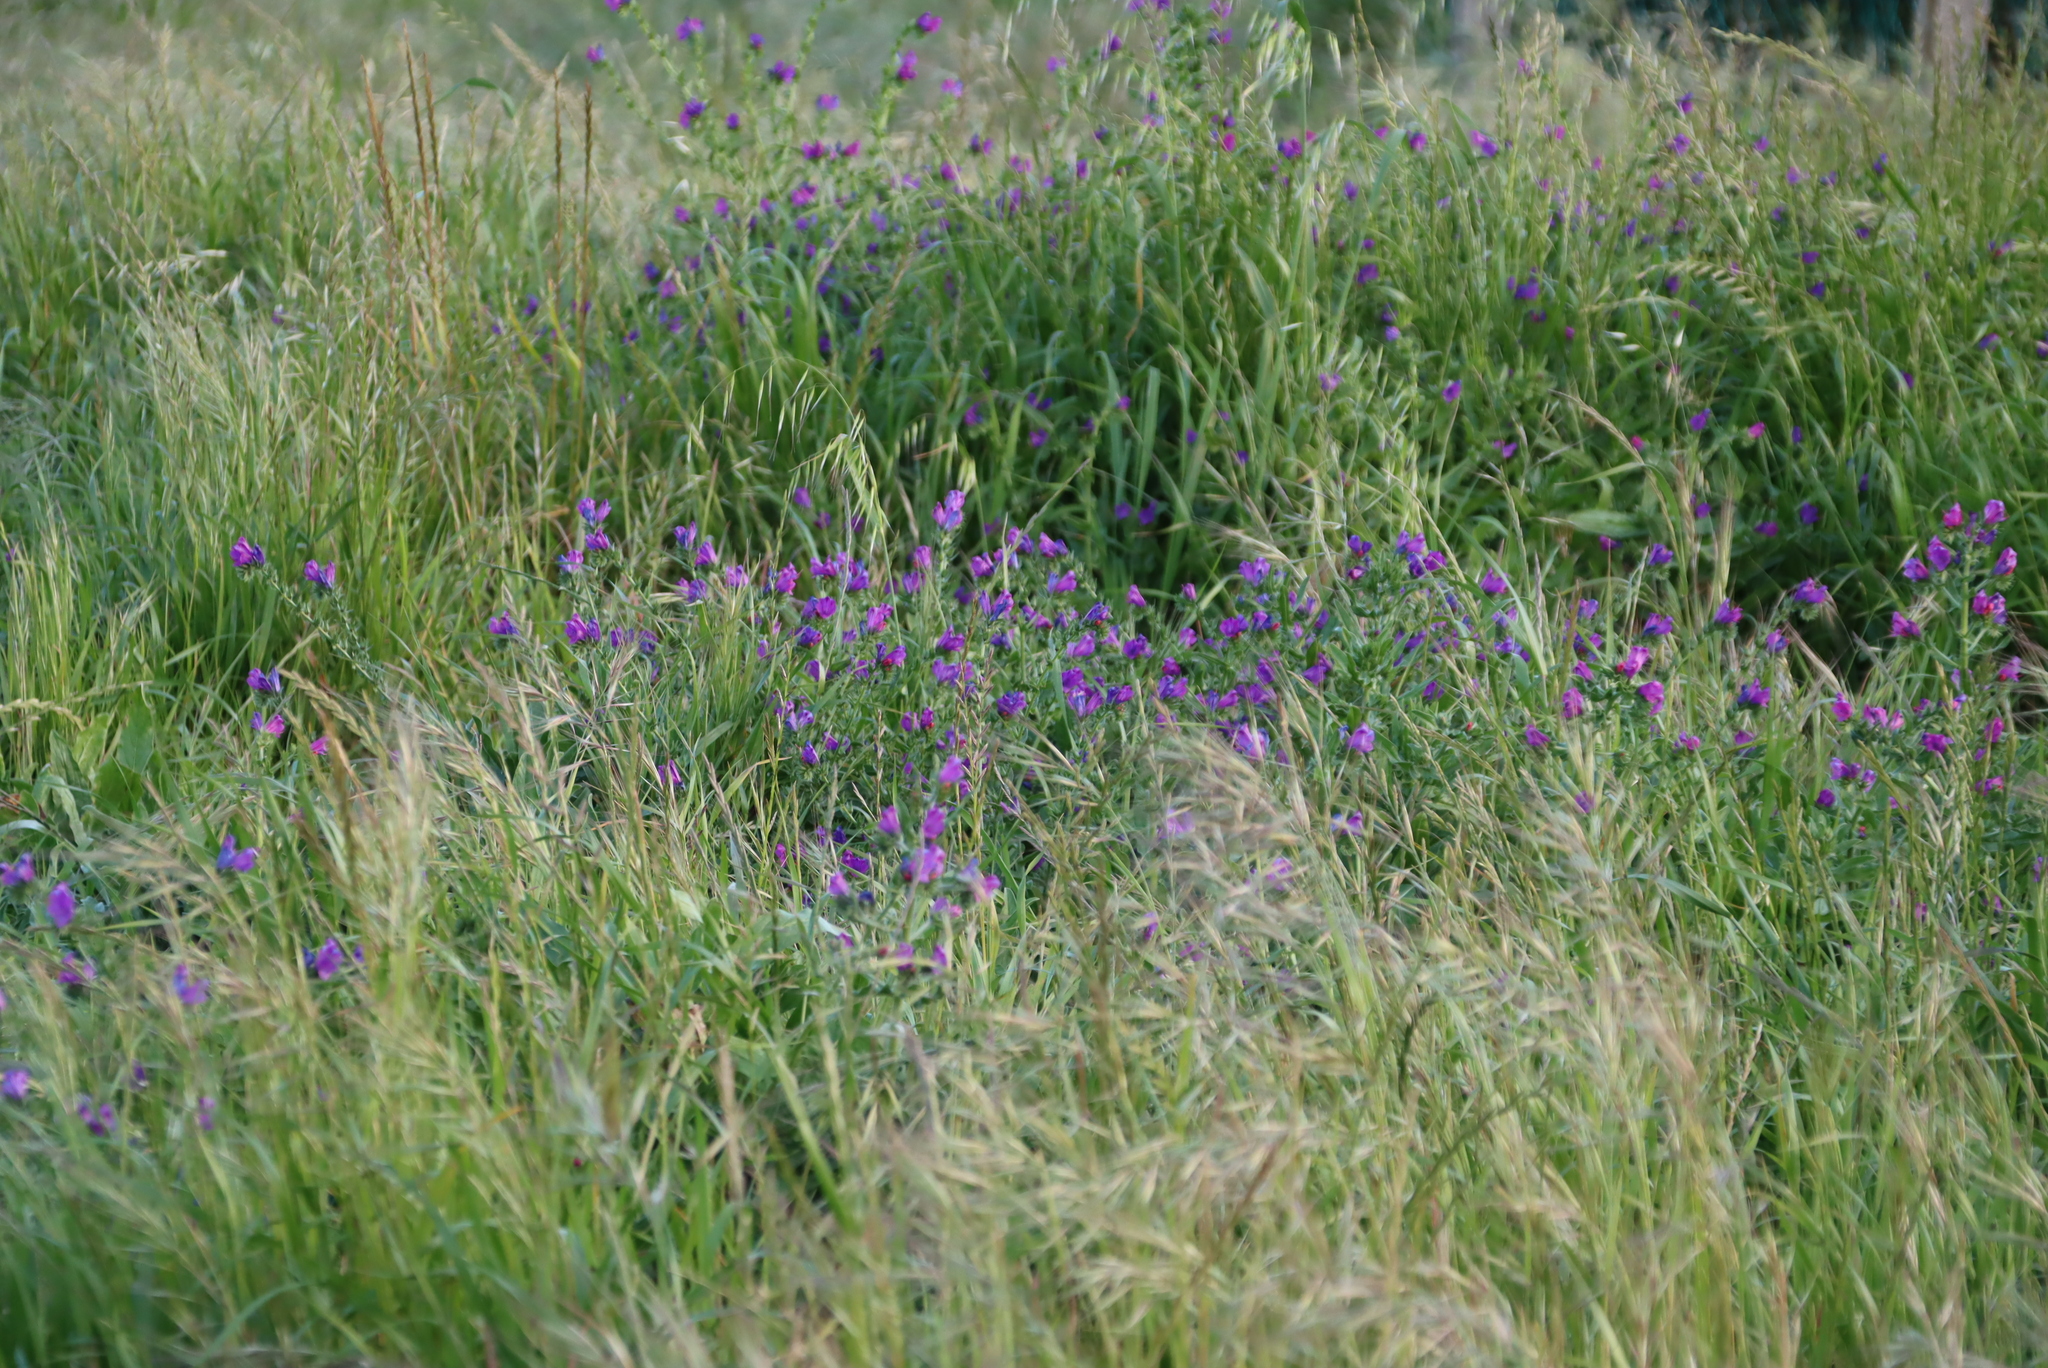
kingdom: Plantae
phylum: Tracheophyta
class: Magnoliopsida
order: Boraginales
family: Boraginaceae
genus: Echium
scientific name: Echium plantagineum
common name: Purple viper's-bugloss
